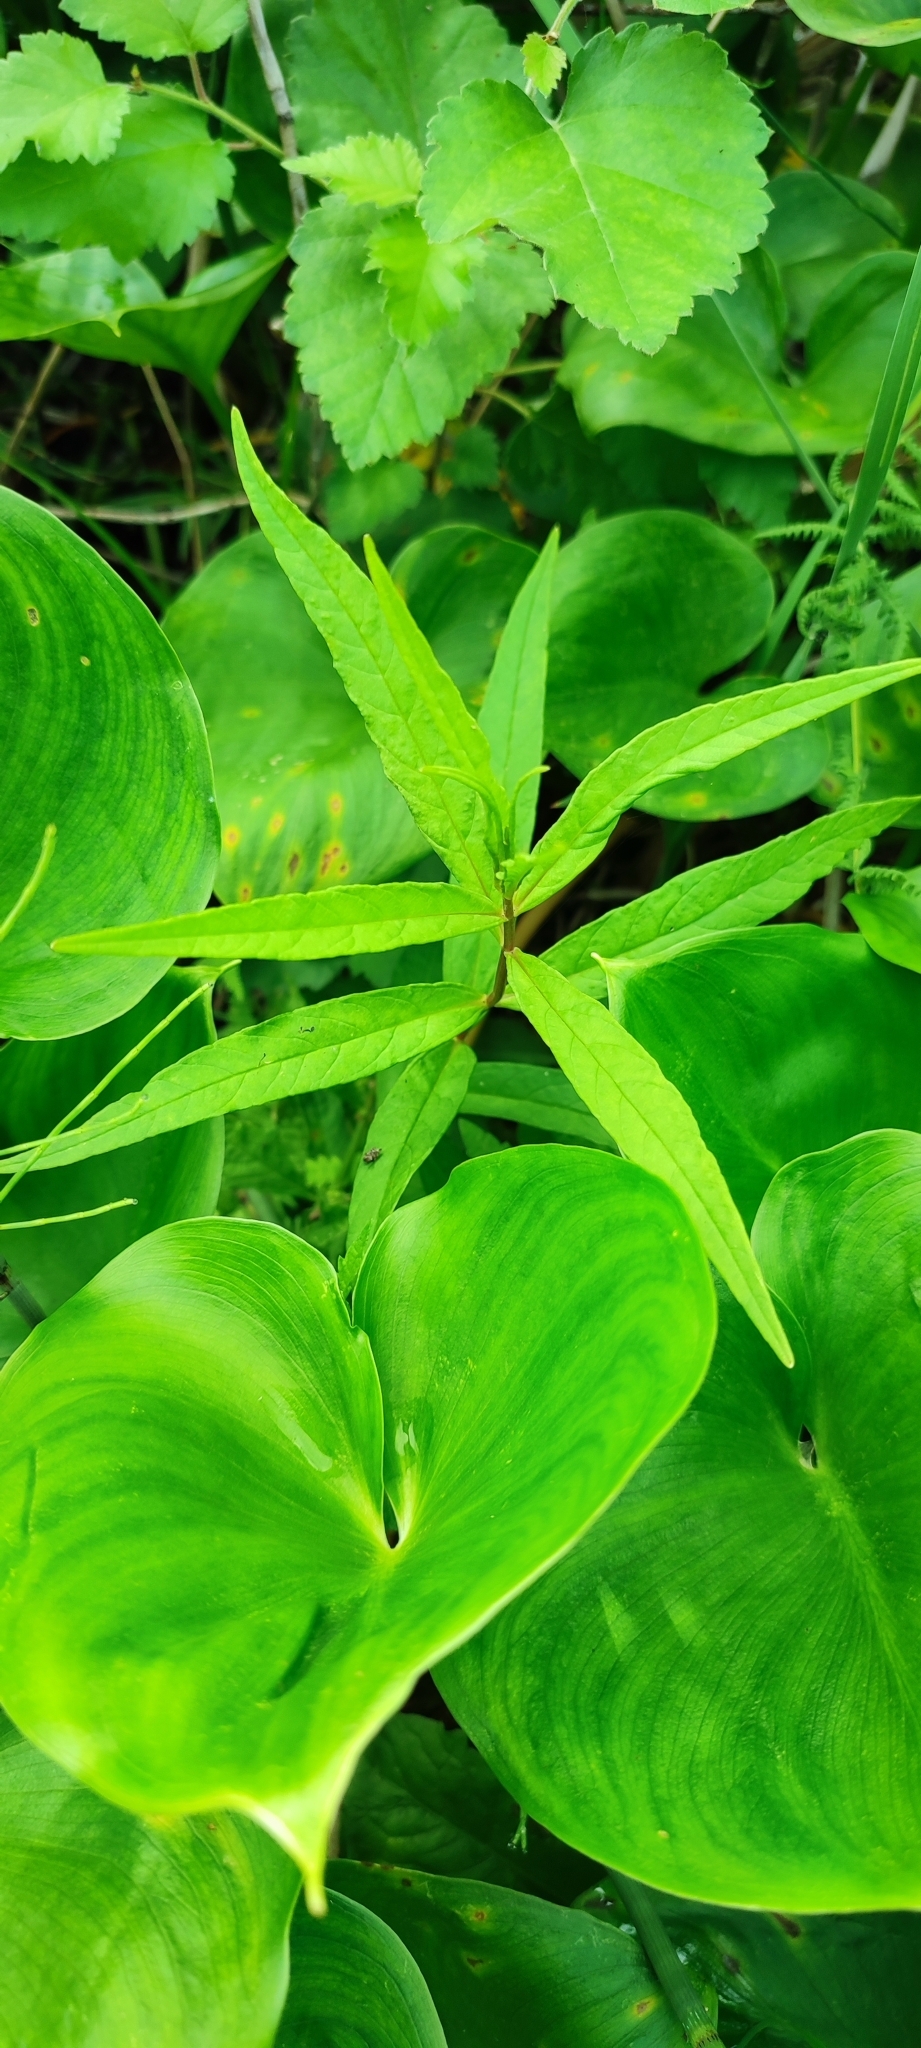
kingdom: Plantae
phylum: Tracheophyta
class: Magnoliopsida
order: Ericales
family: Primulaceae
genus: Lysimachia
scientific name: Lysimachia thyrsiflora
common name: Tufted loosestrife
